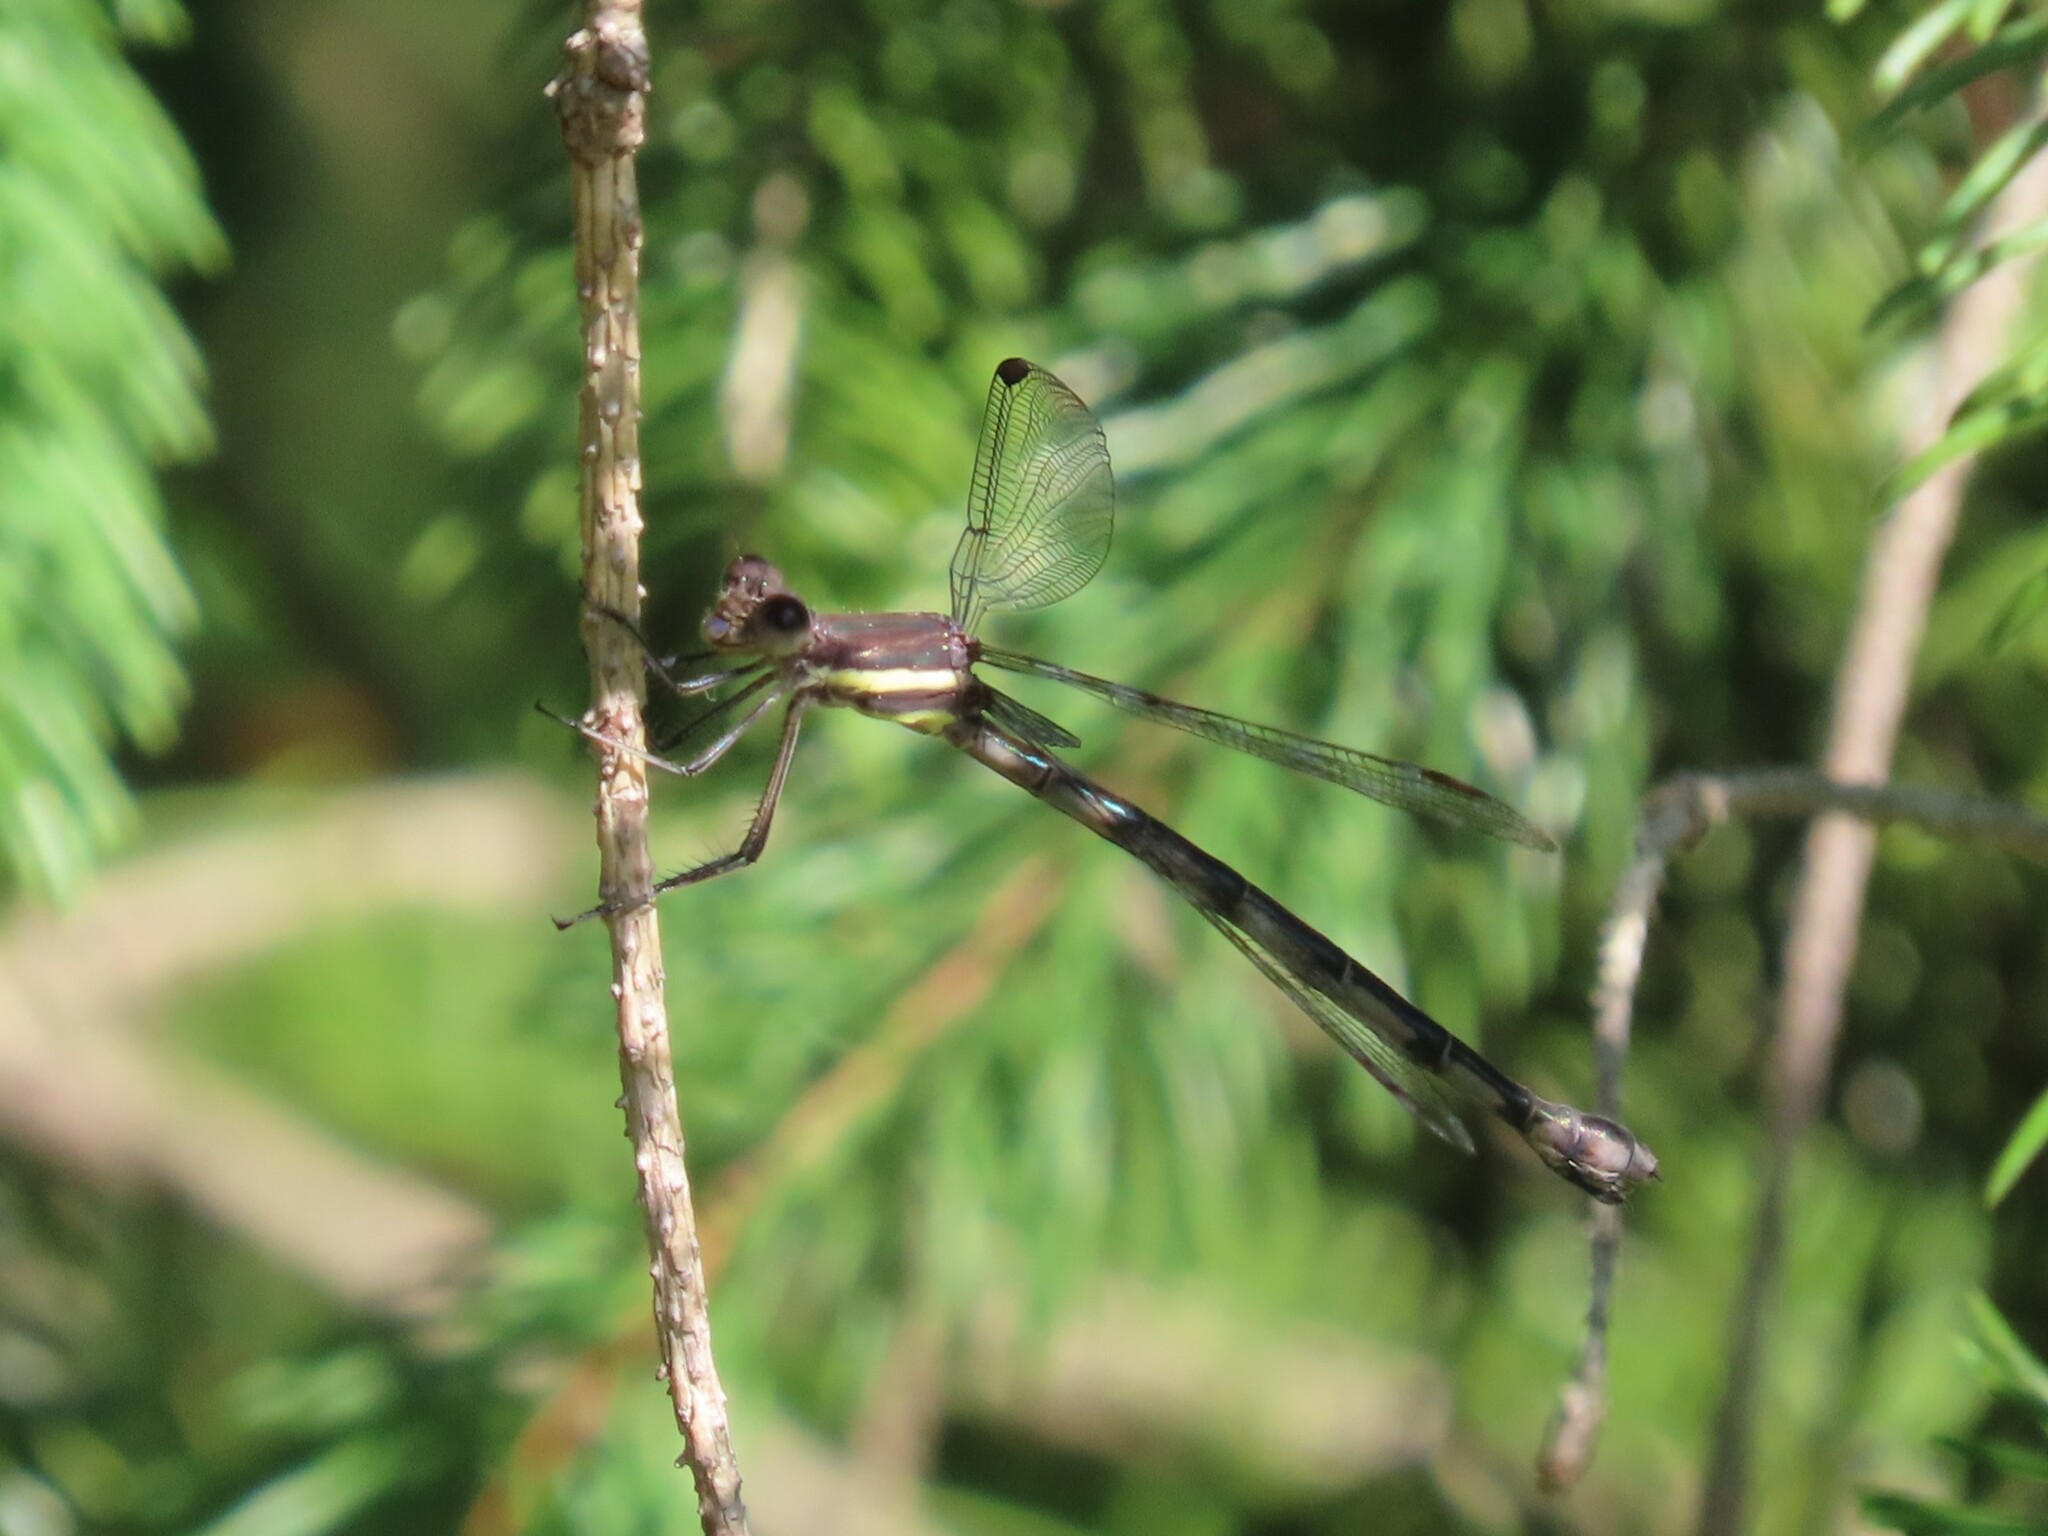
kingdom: Animalia
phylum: Arthropoda
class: Insecta
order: Odonata
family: Lestidae
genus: Archilestes
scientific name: Archilestes grandis
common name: Great spreadwing
